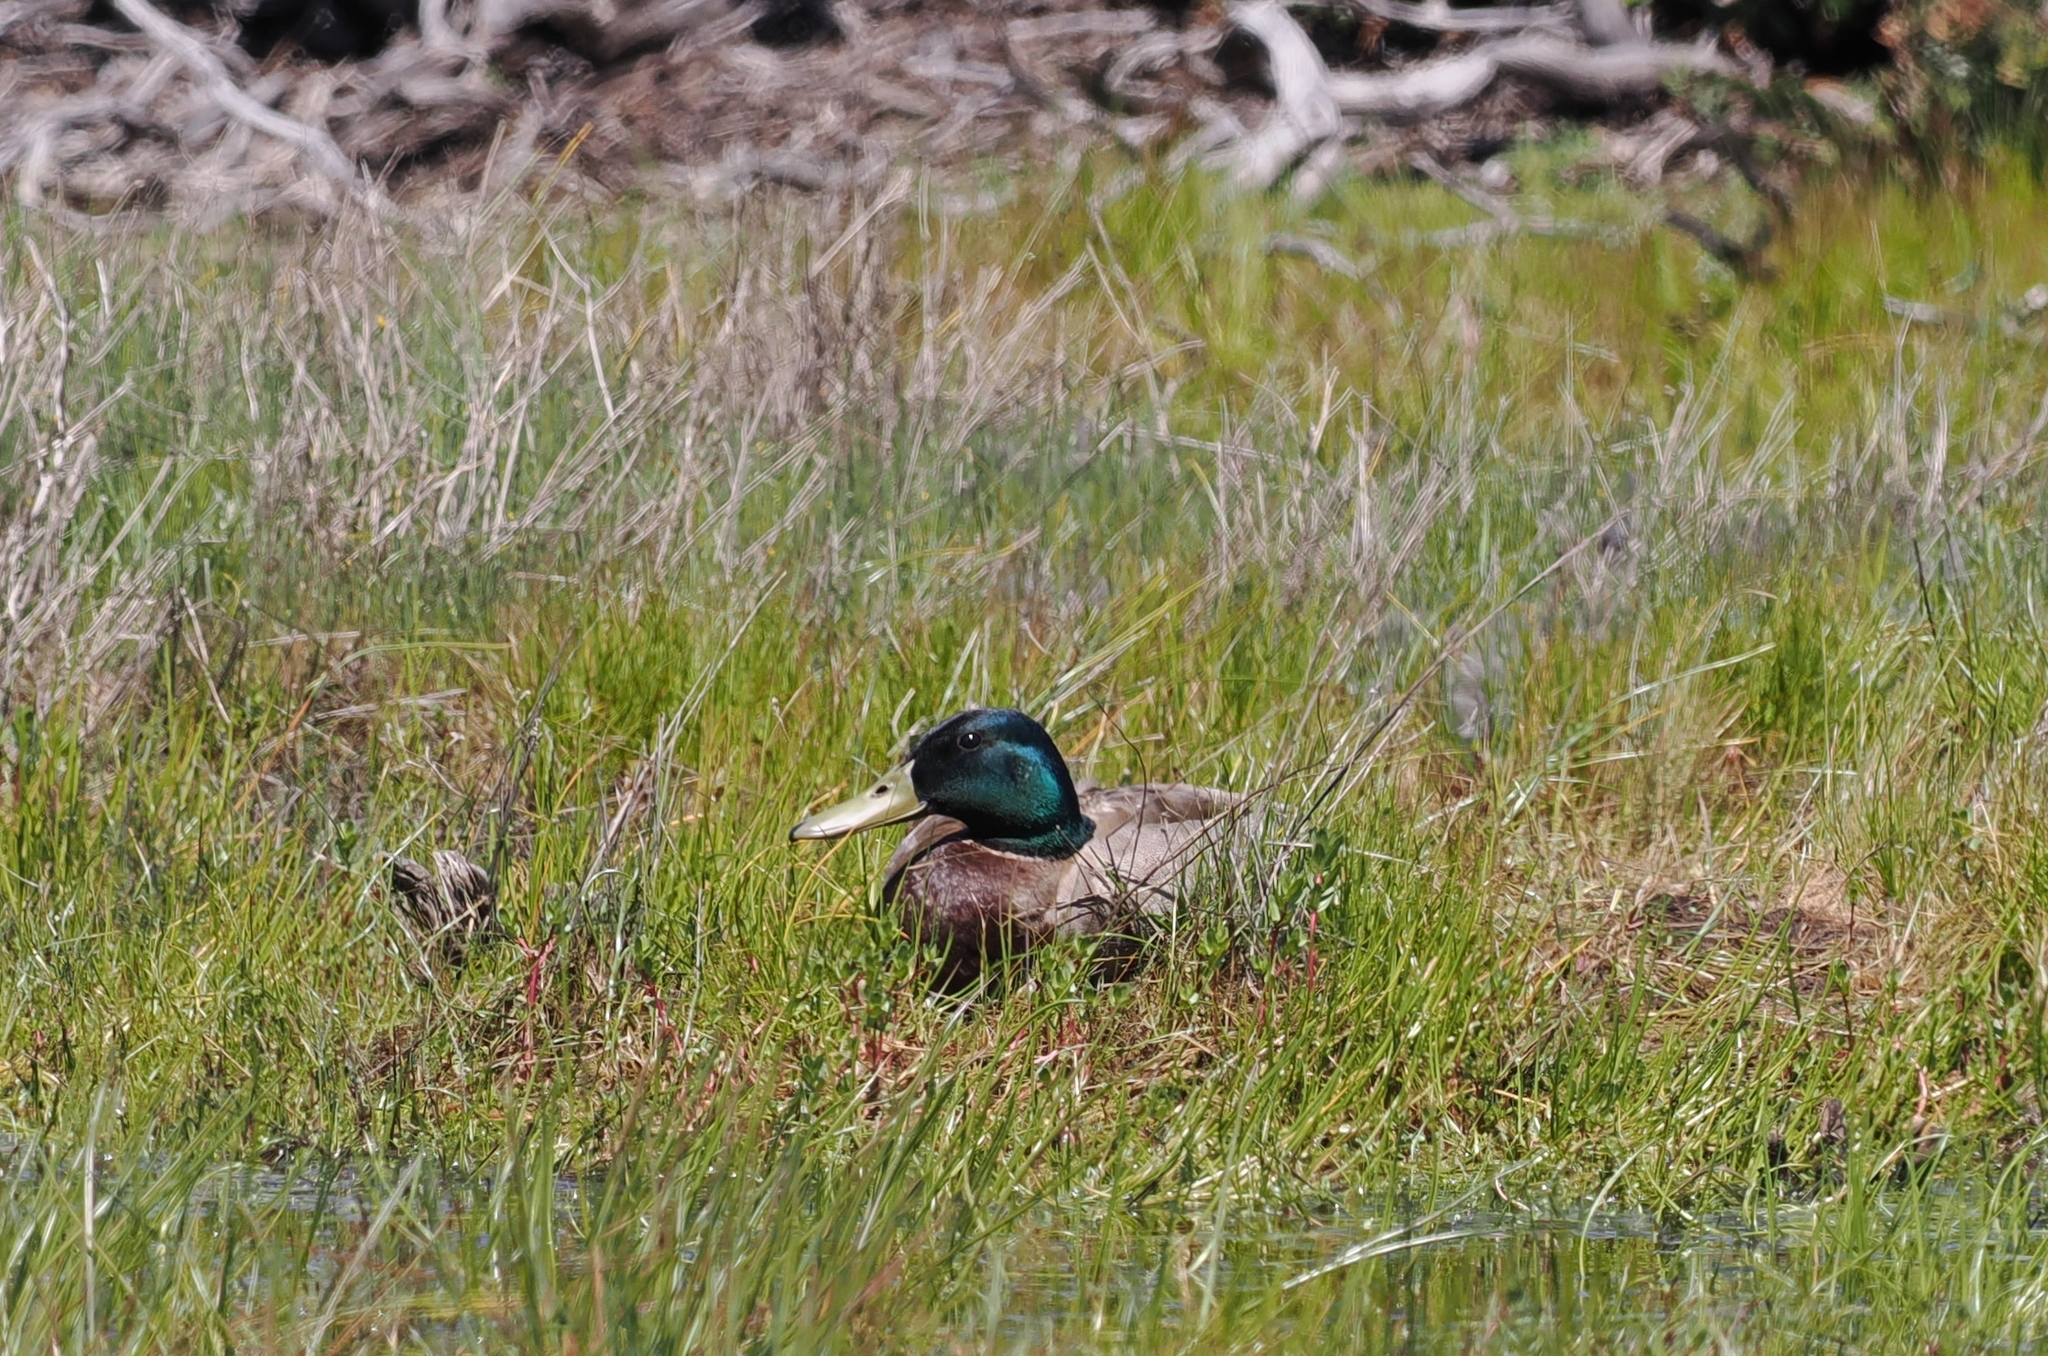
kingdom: Animalia
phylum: Chordata
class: Aves
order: Anseriformes
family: Anatidae
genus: Anas
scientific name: Anas platyrhynchos
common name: Mallard
